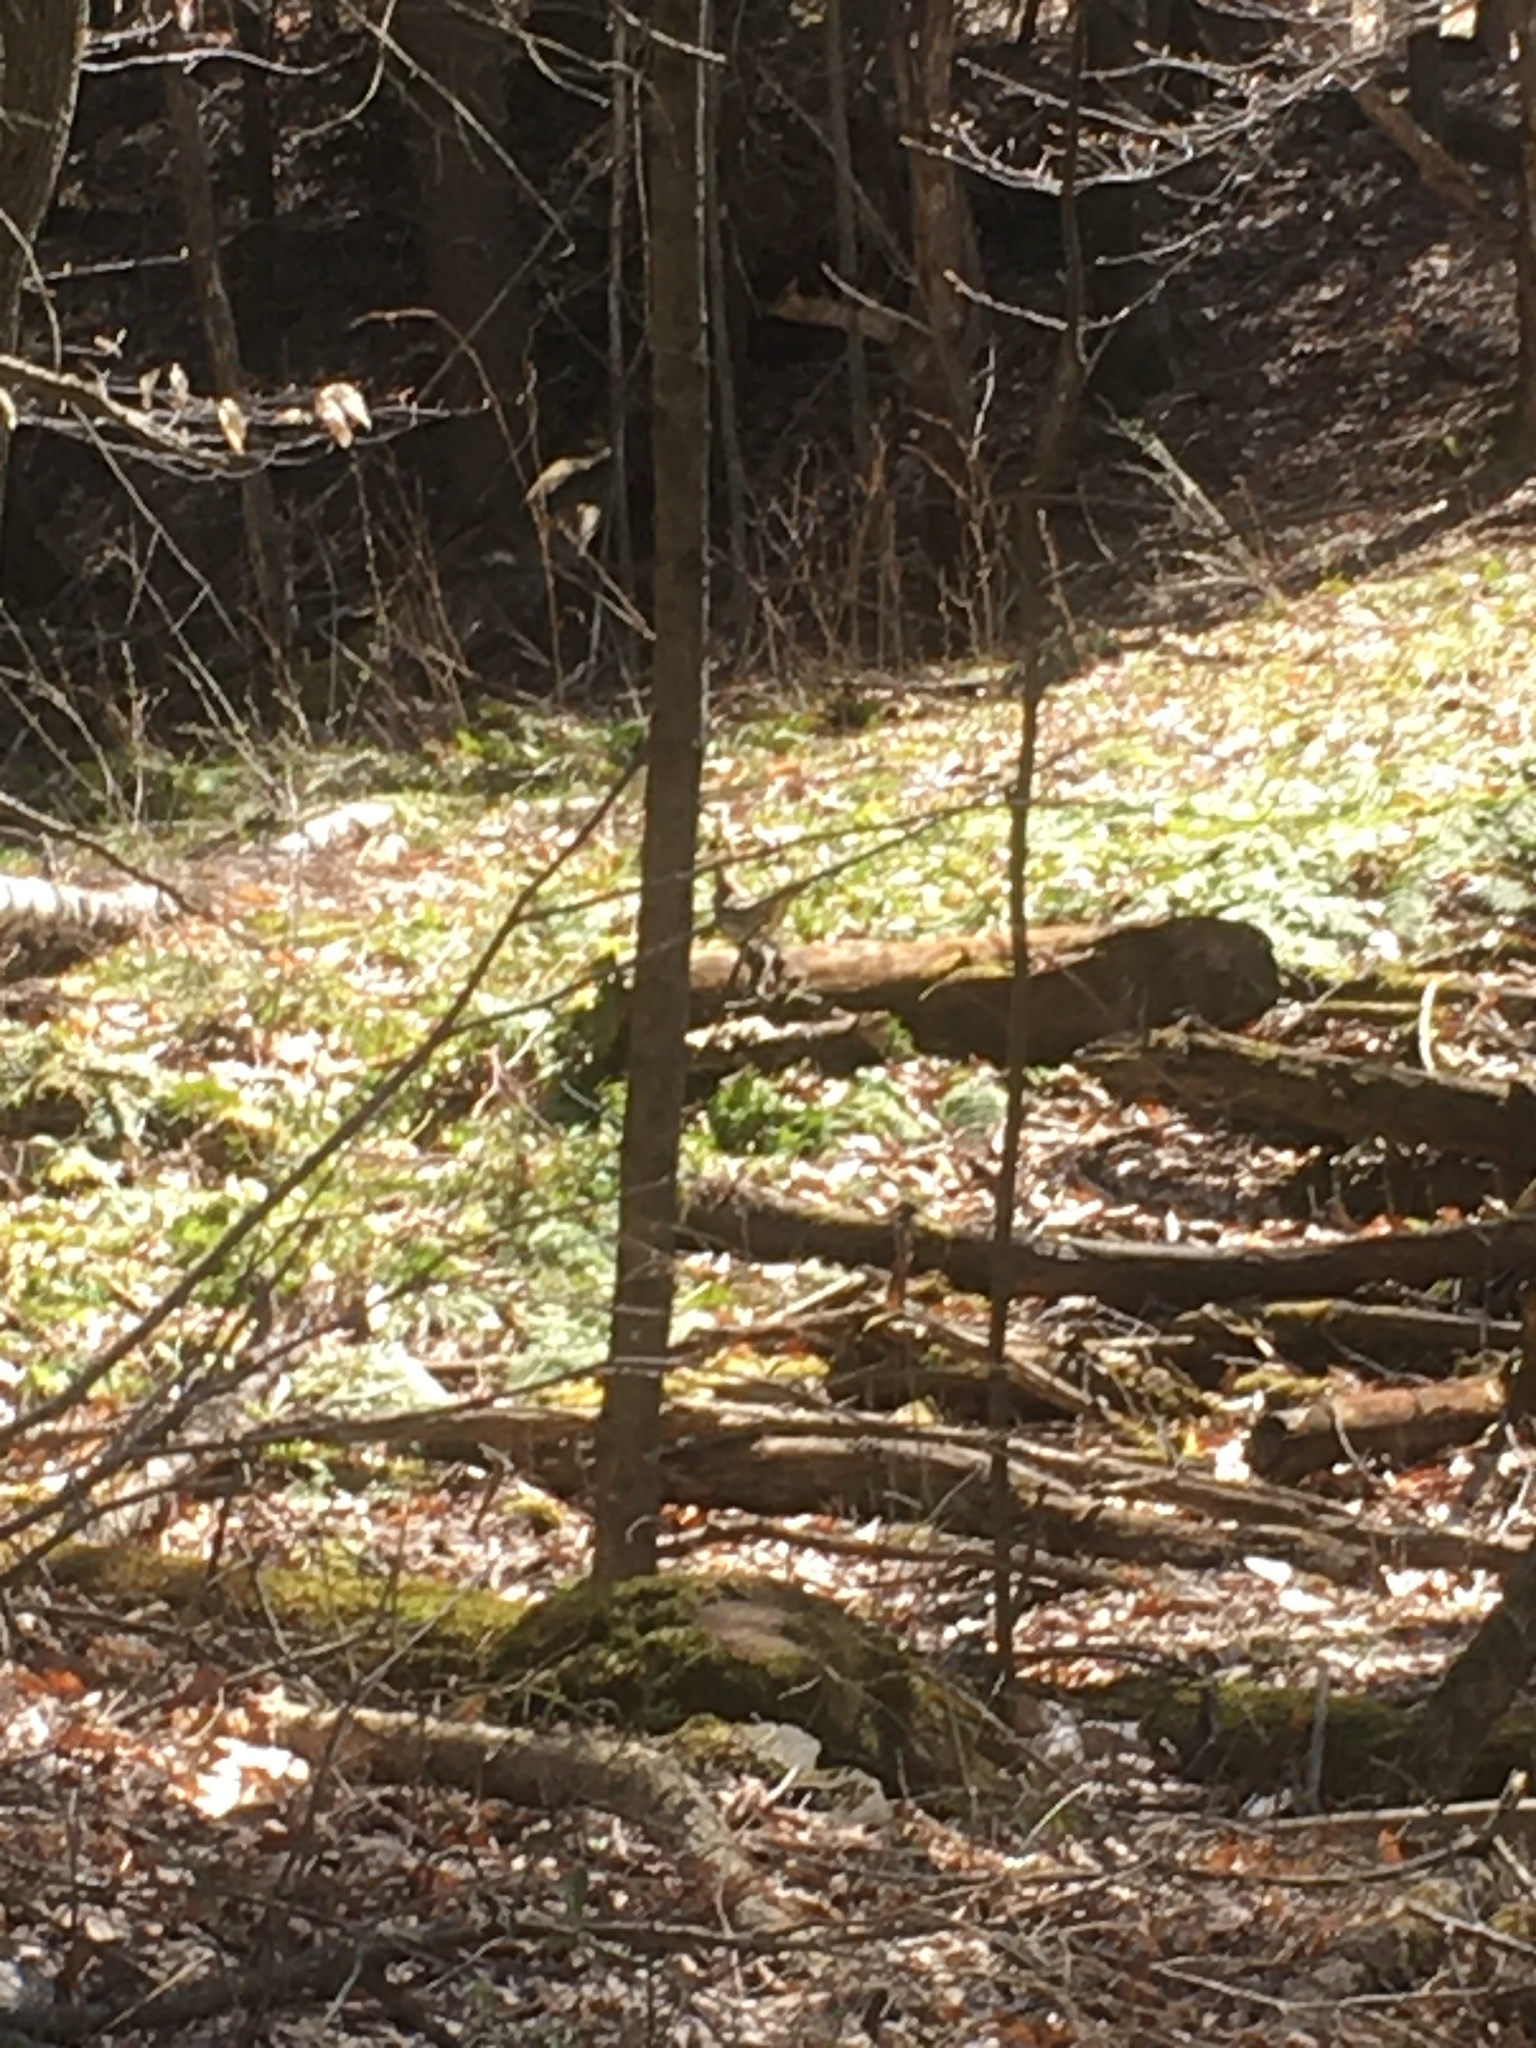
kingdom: Animalia
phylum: Chordata
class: Aves
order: Galliformes
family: Phasianidae
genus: Bonasa
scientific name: Bonasa umbellus
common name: Ruffed grouse
